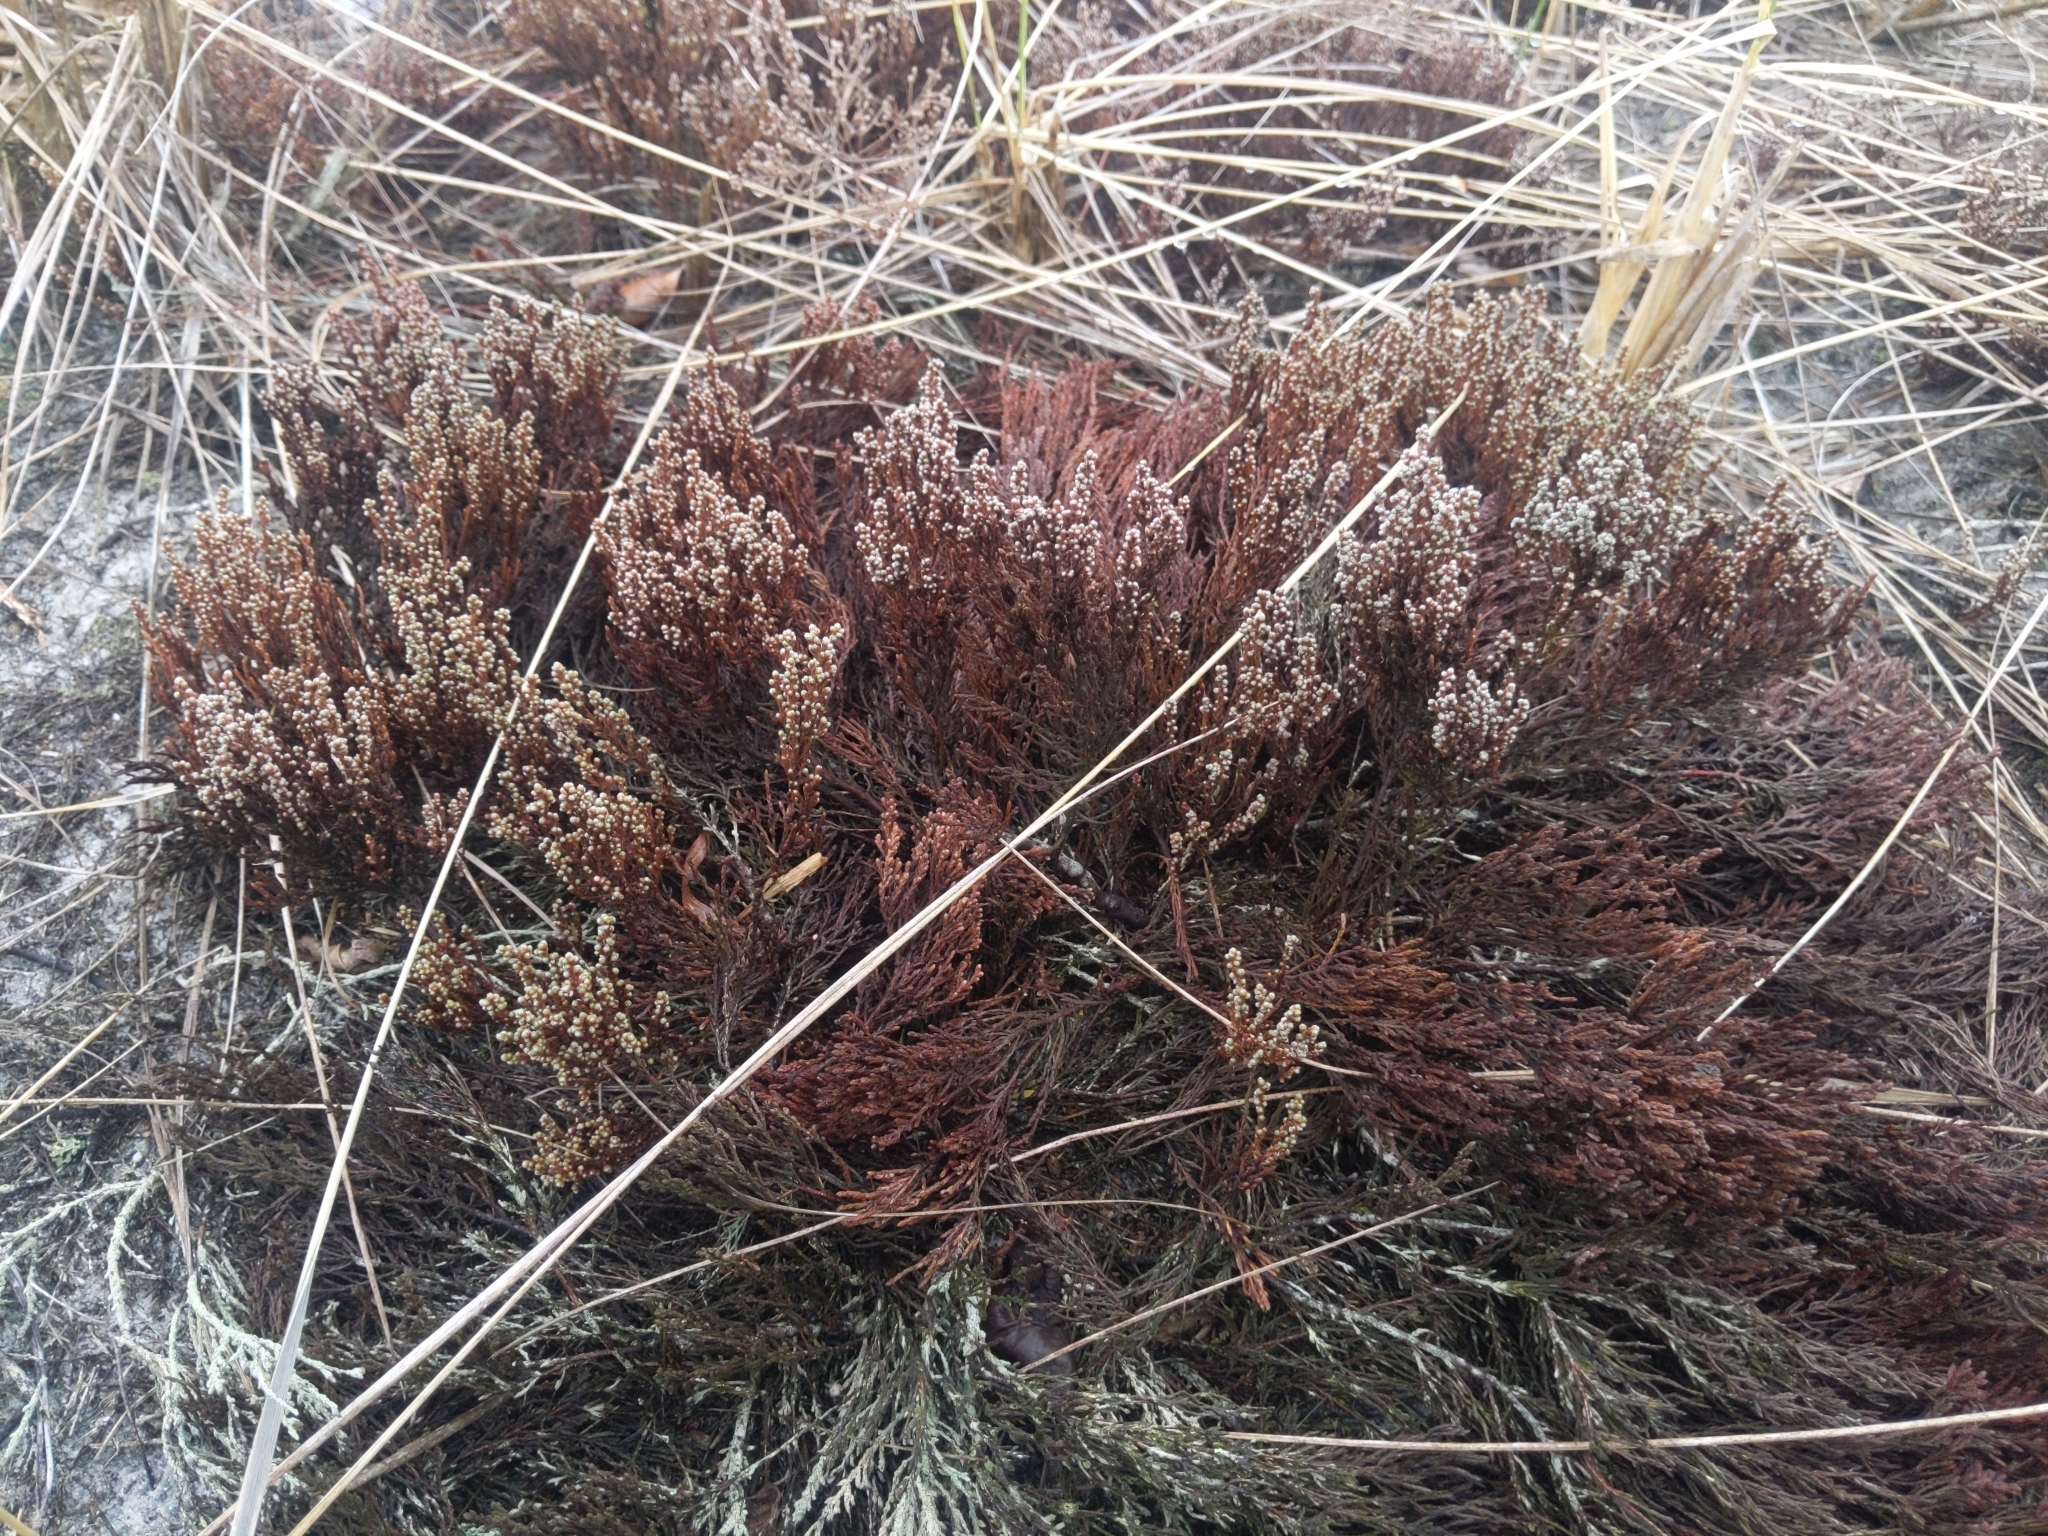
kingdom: Plantae
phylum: Tracheophyta
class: Magnoliopsida
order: Malvales
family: Cistaceae
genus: Hudsonia
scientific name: Hudsonia tomentosa
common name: Beach-heath
